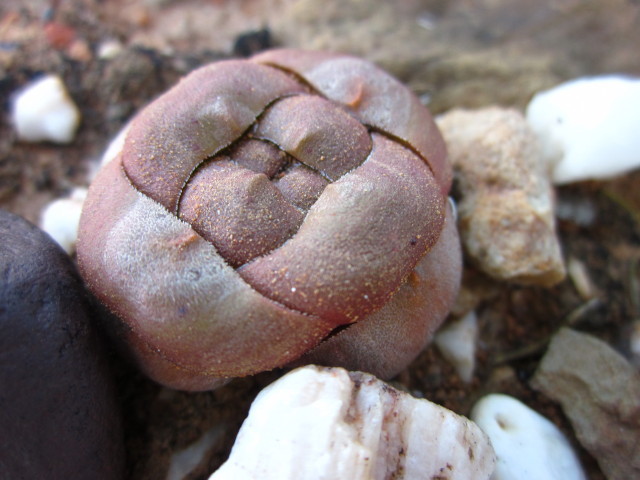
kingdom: Plantae
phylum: Tracheophyta
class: Magnoliopsida
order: Saxifragales
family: Crassulaceae
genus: Crassula
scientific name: Crassula columnaris
